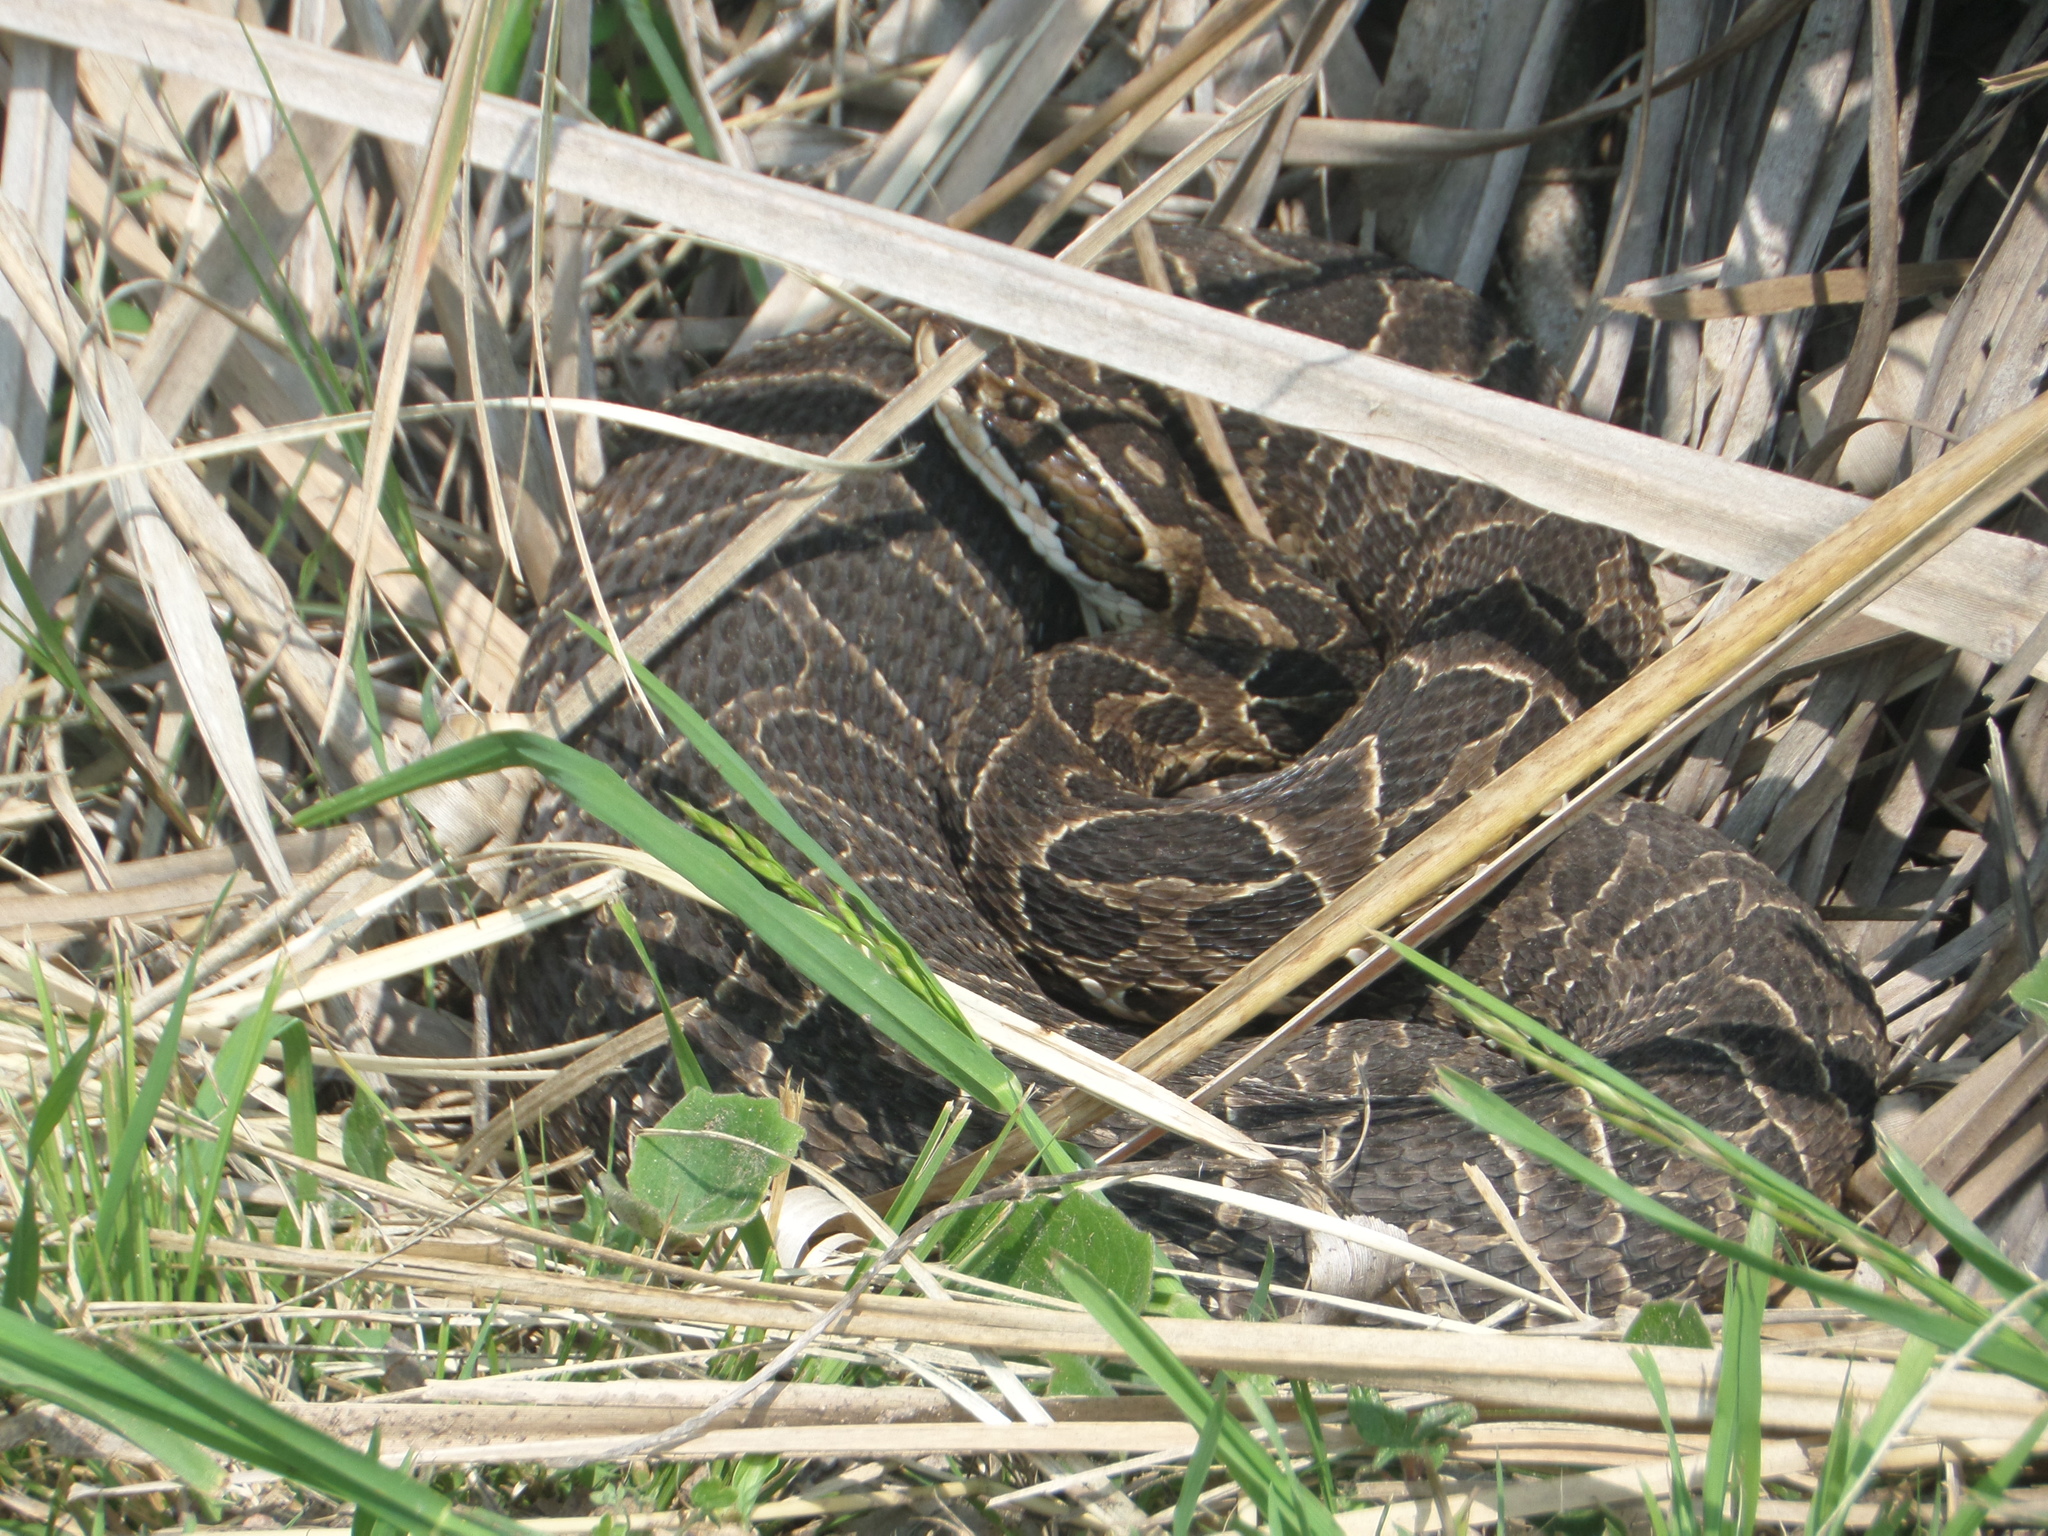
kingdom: Animalia
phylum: Chordata
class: Squamata
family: Viperidae
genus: Bothrops
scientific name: Bothrops alternatus
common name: Urutu
